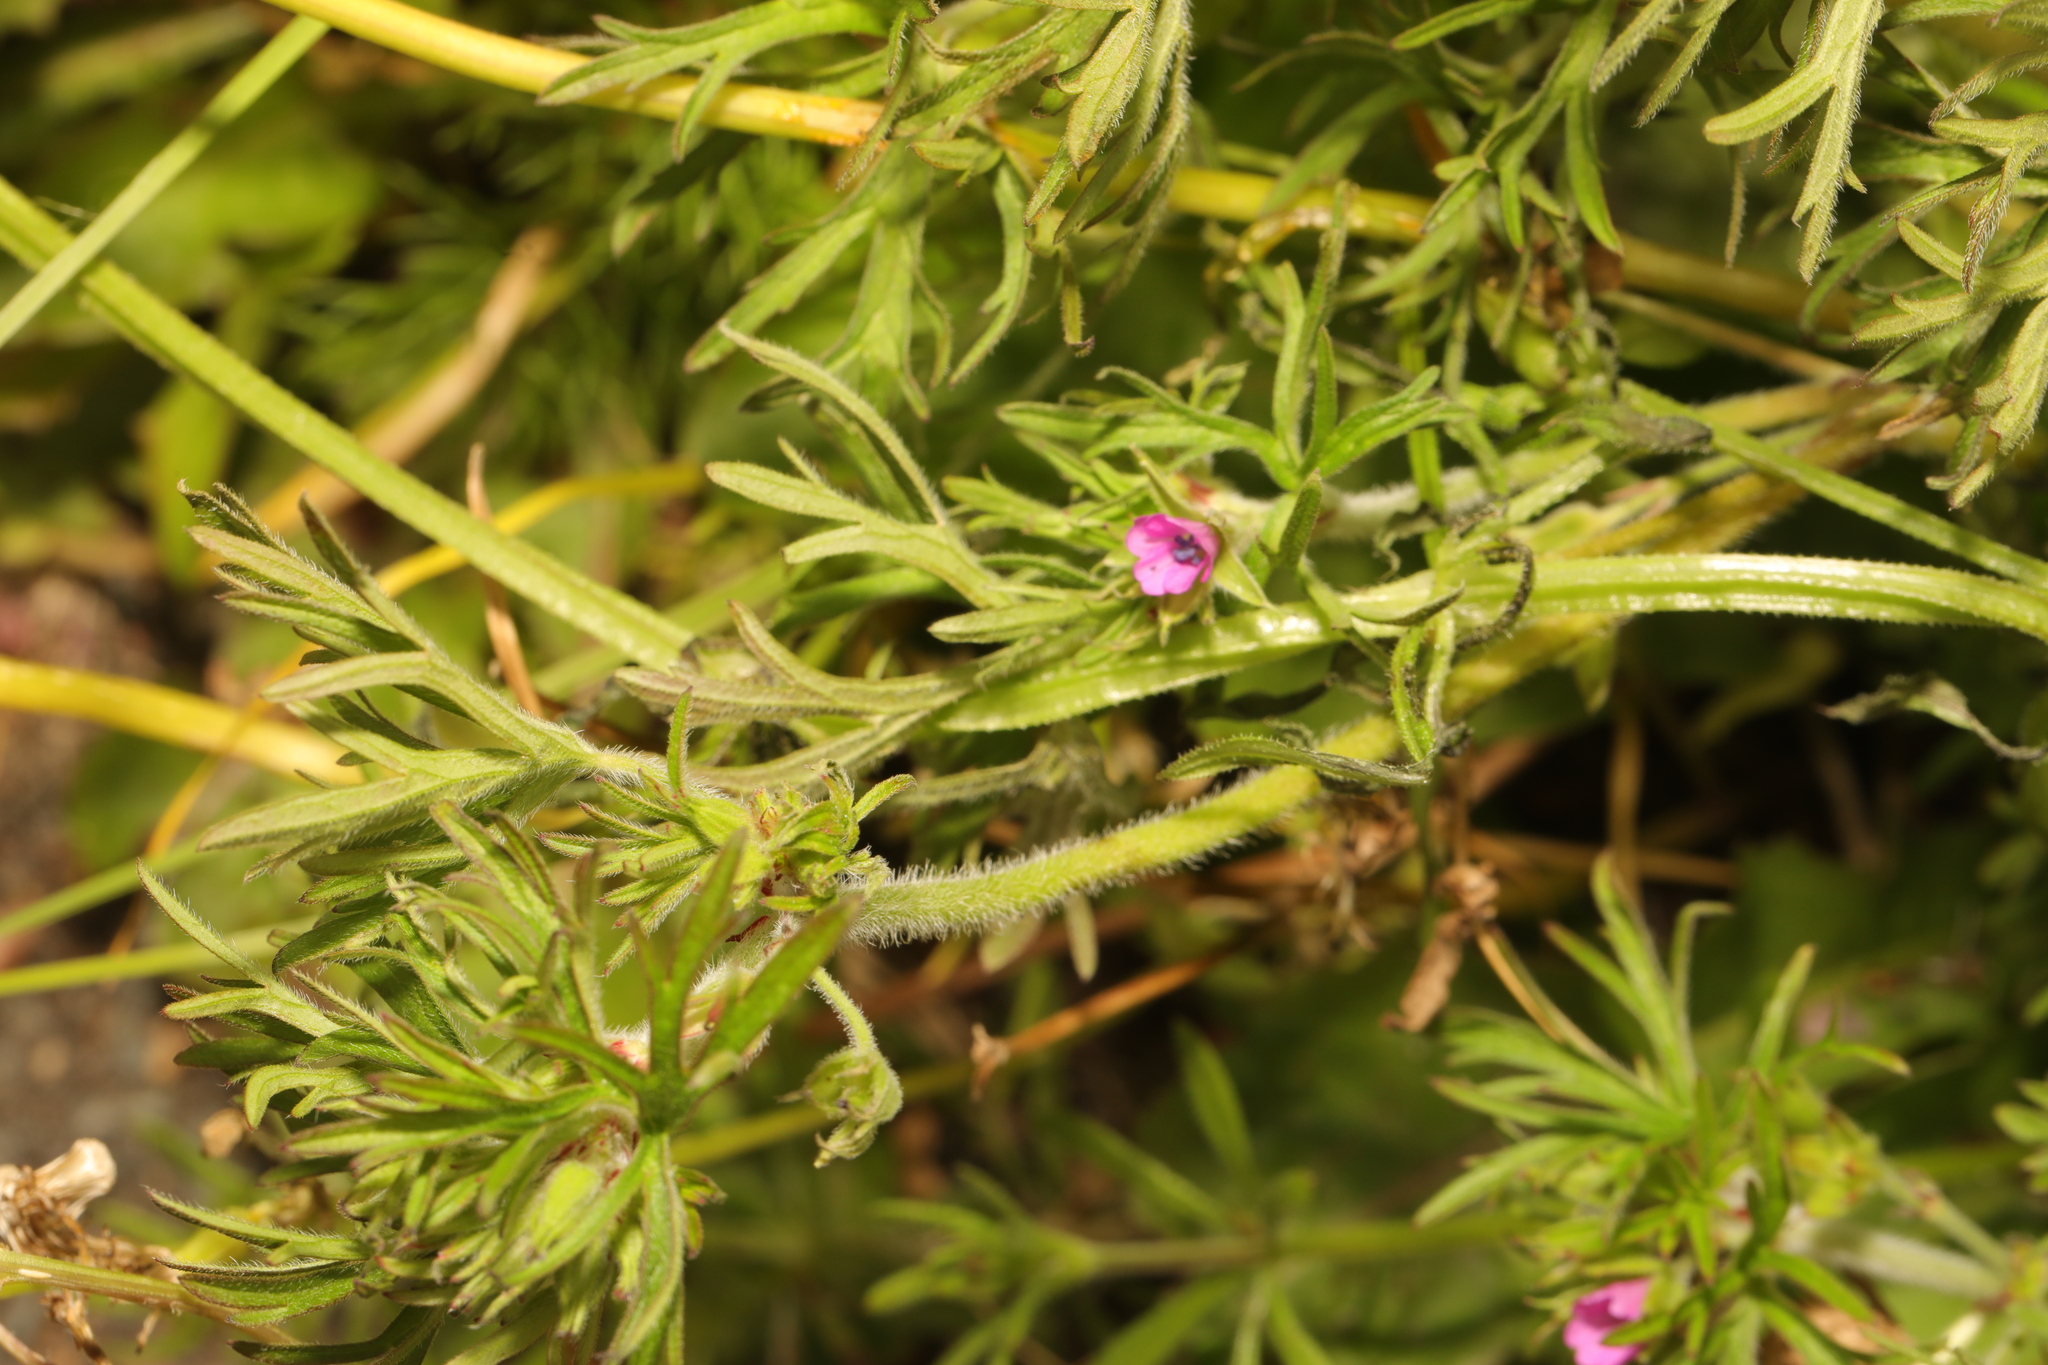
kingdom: Plantae
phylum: Tracheophyta
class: Magnoliopsida
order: Geraniales
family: Geraniaceae
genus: Geranium
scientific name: Geranium dissectum
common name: Cut-leaved crane's-bill
